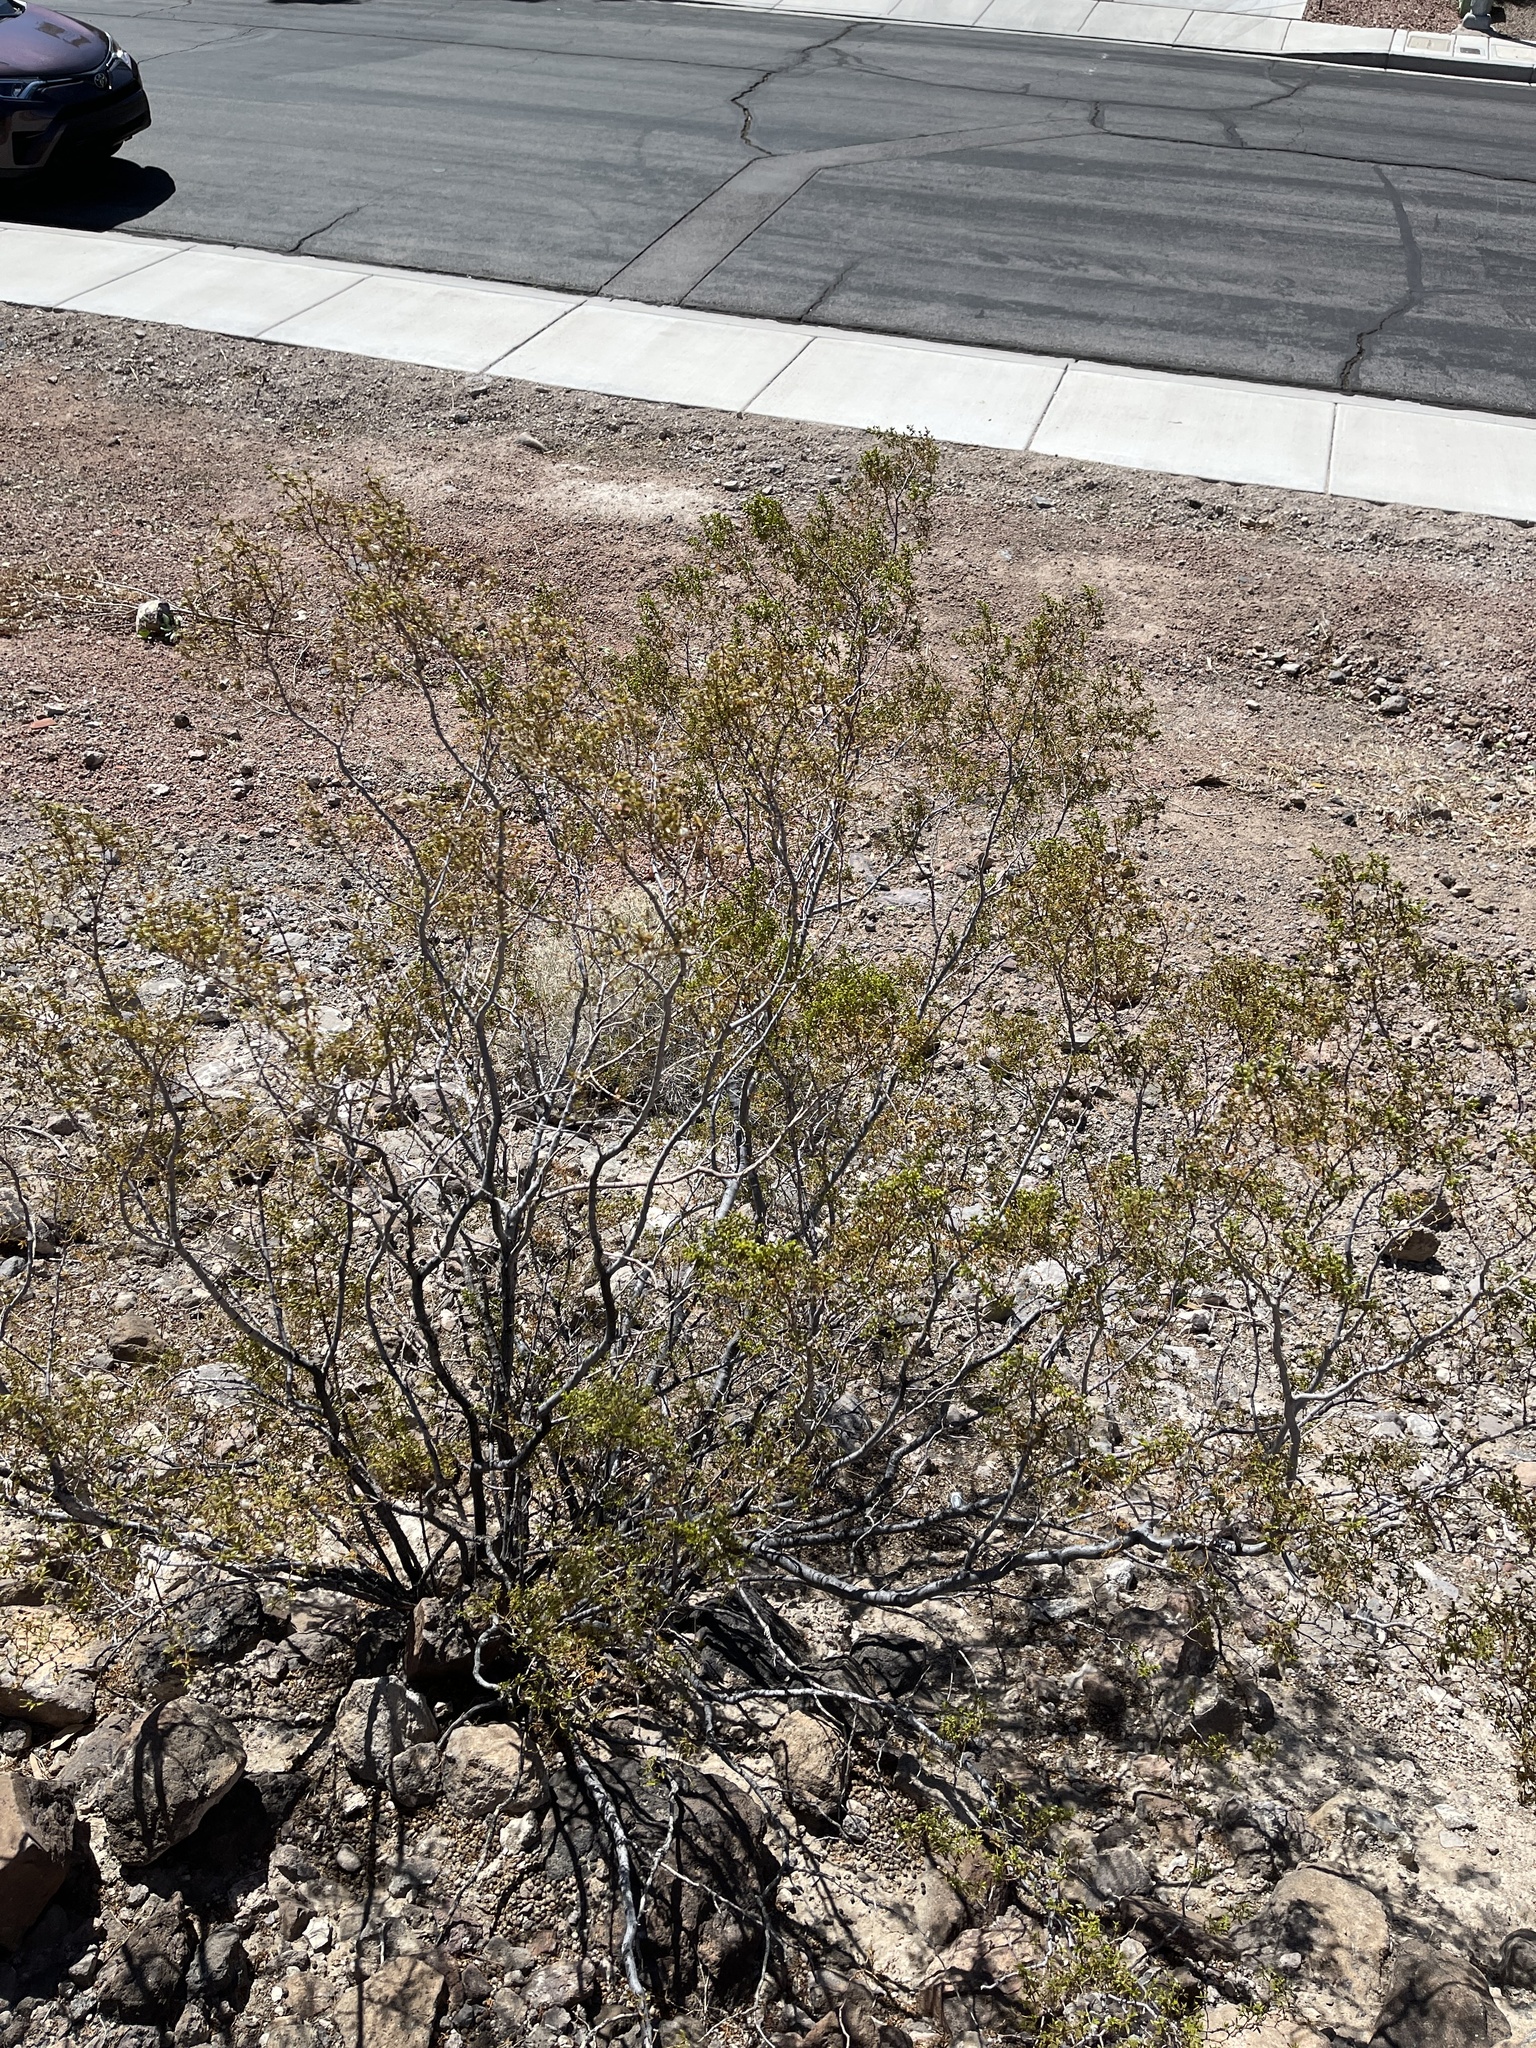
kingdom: Plantae
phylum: Tracheophyta
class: Magnoliopsida
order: Zygophyllales
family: Zygophyllaceae
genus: Larrea
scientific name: Larrea tridentata
